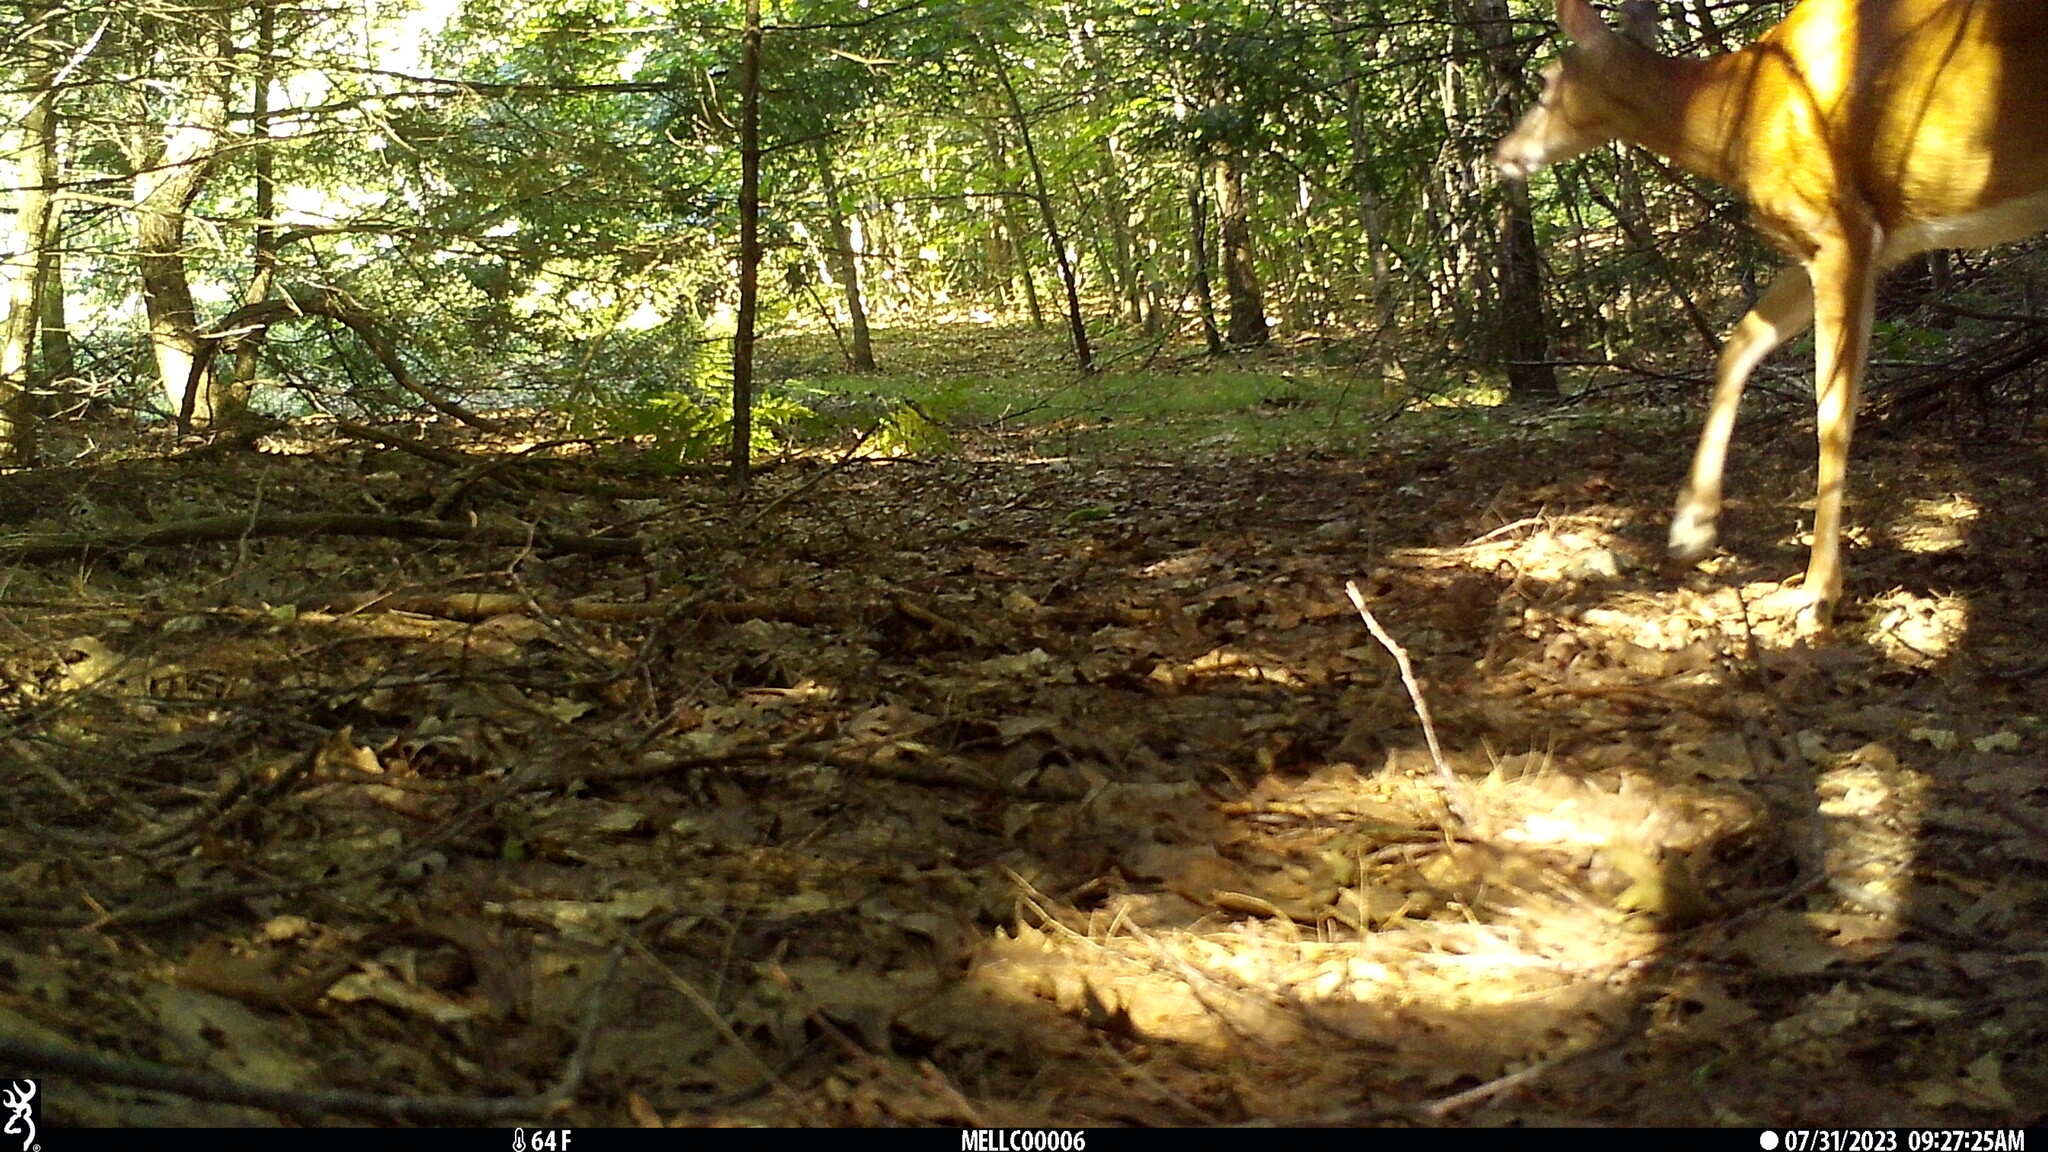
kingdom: Animalia
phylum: Chordata
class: Mammalia
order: Artiodactyla
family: Cervidae
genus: Odocoileus
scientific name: Odocoileus virginianus
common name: White-tailed deer
